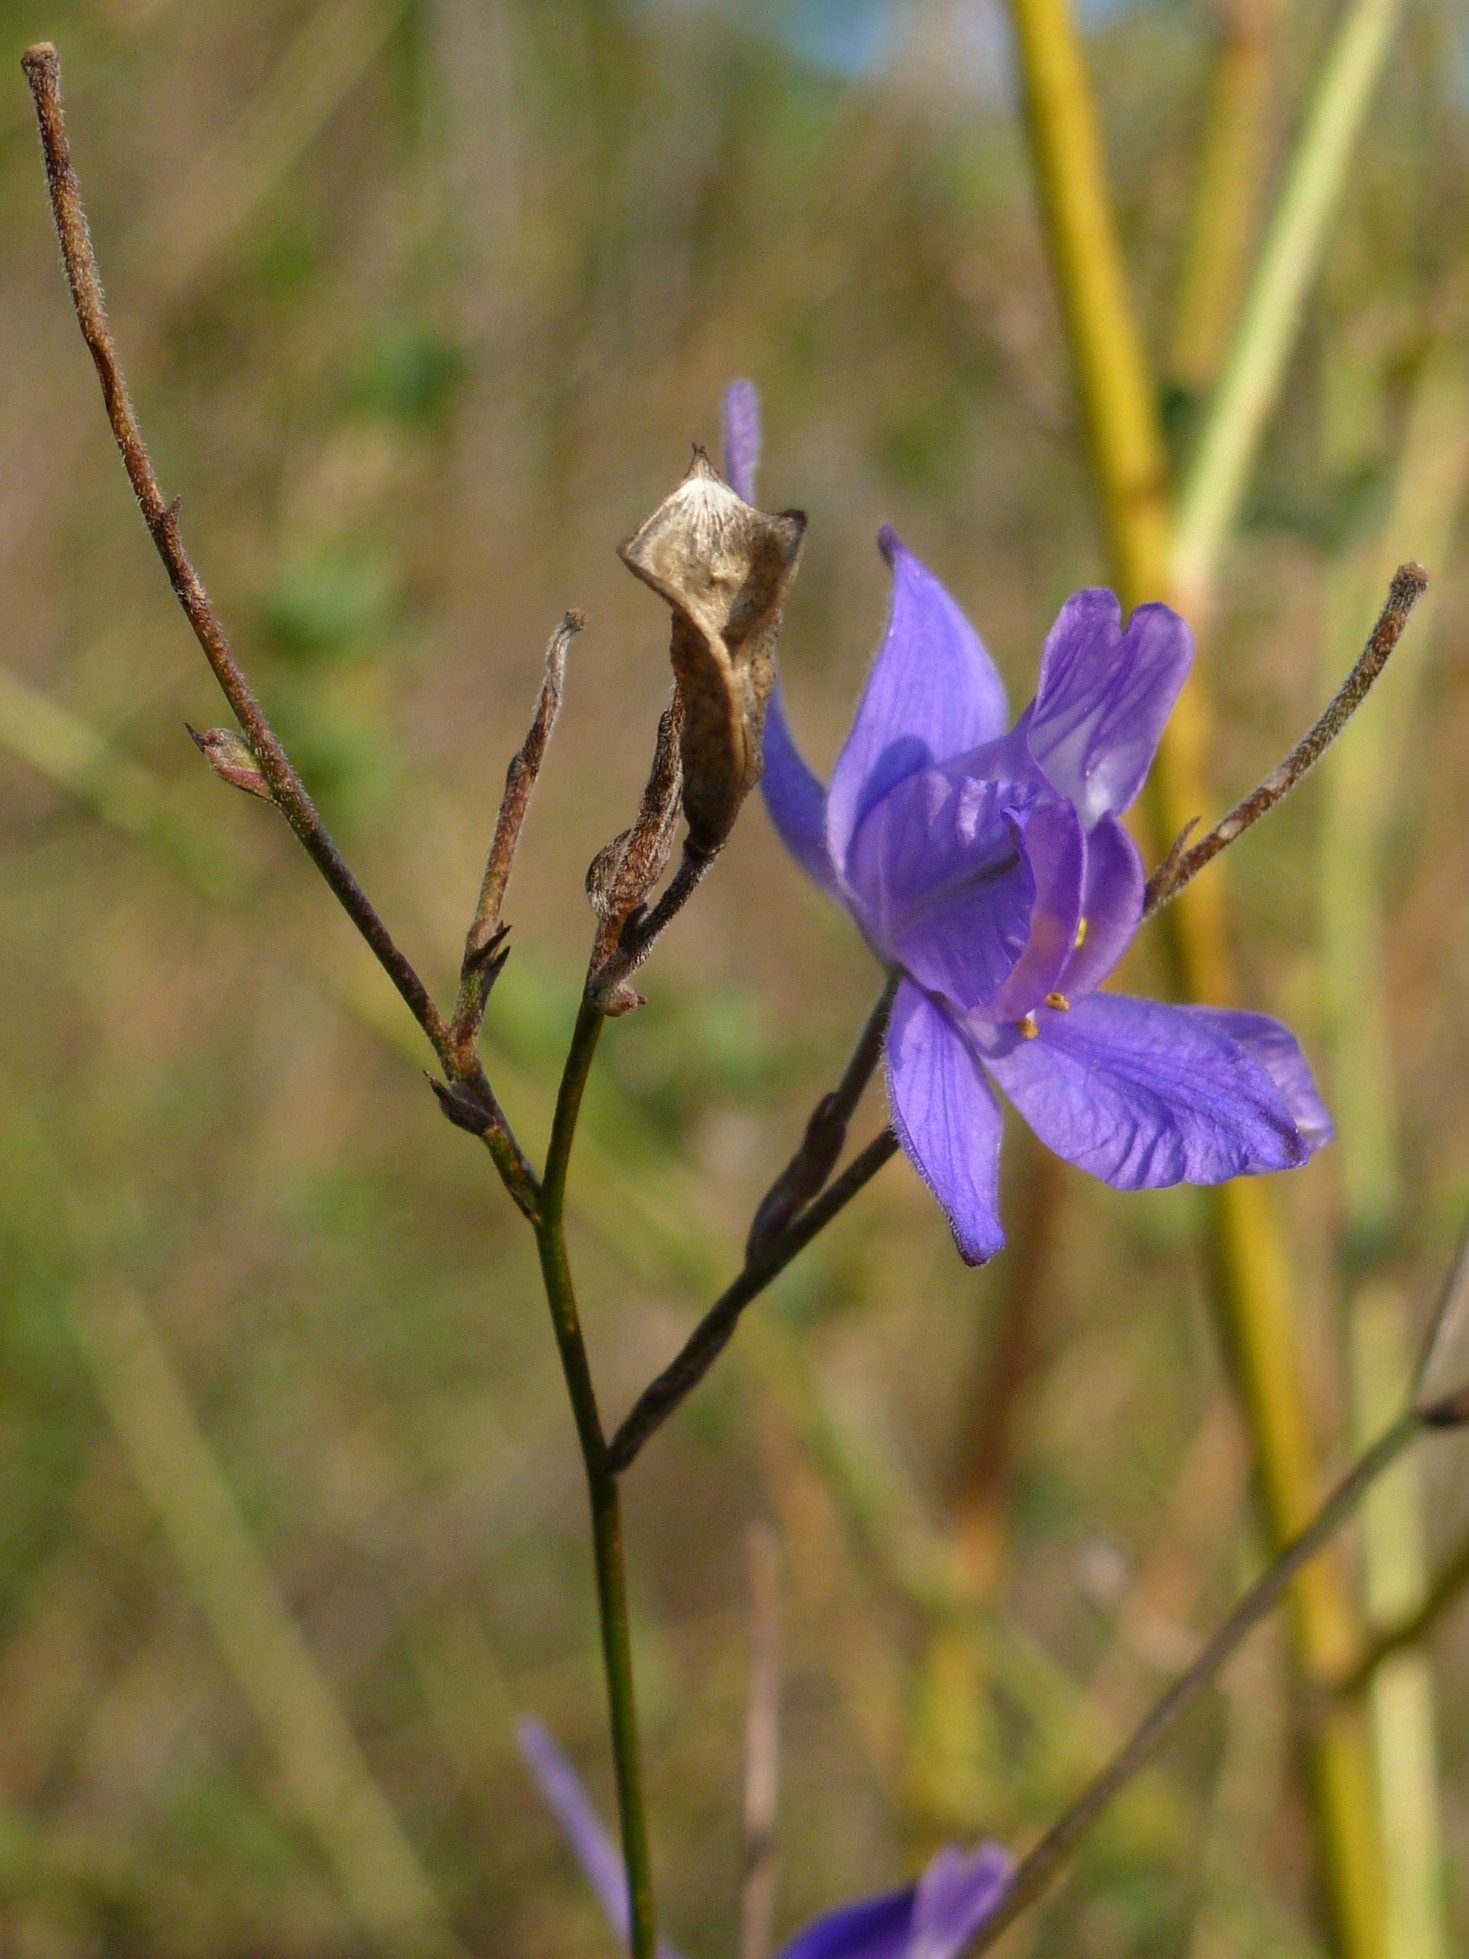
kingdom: Plantae
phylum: Tracheophyta
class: Magnoliopsida
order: Ranunculales
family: Ranunculaceae
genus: Delphinium
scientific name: Delphinium consolida
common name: Branching larkspur
